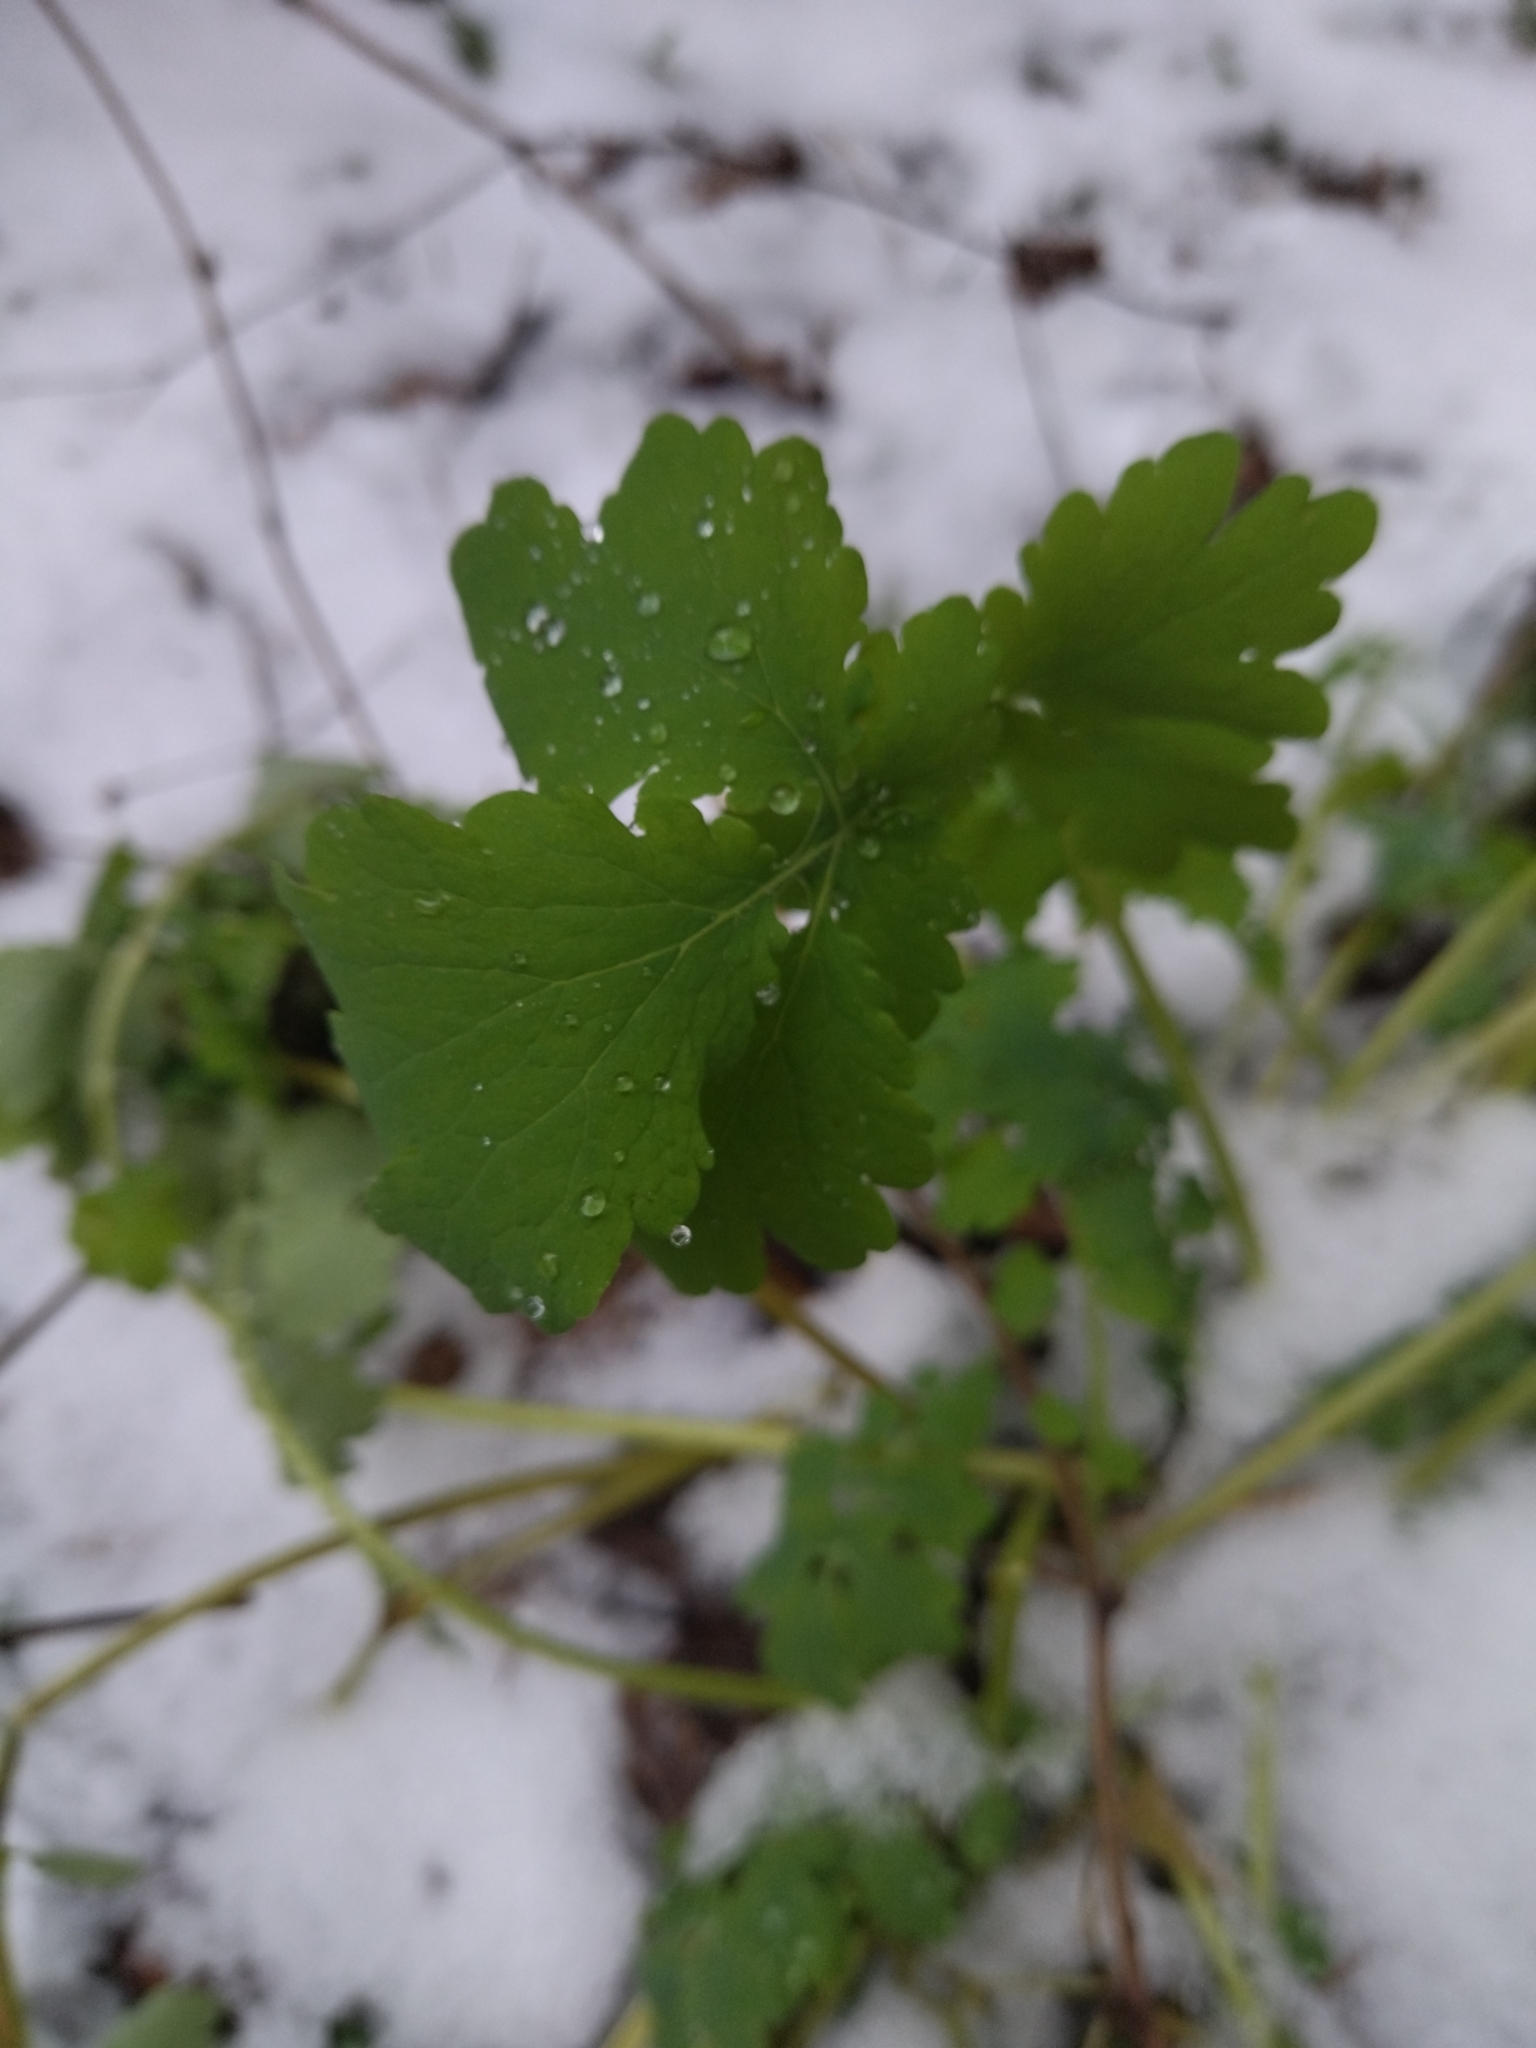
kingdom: Plantae
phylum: Tracheophyta
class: Magnoliopsida
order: Ranunculales
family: Papaveraceae
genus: Chelidonium
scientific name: Chelidonium majus
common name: Greater celandine
